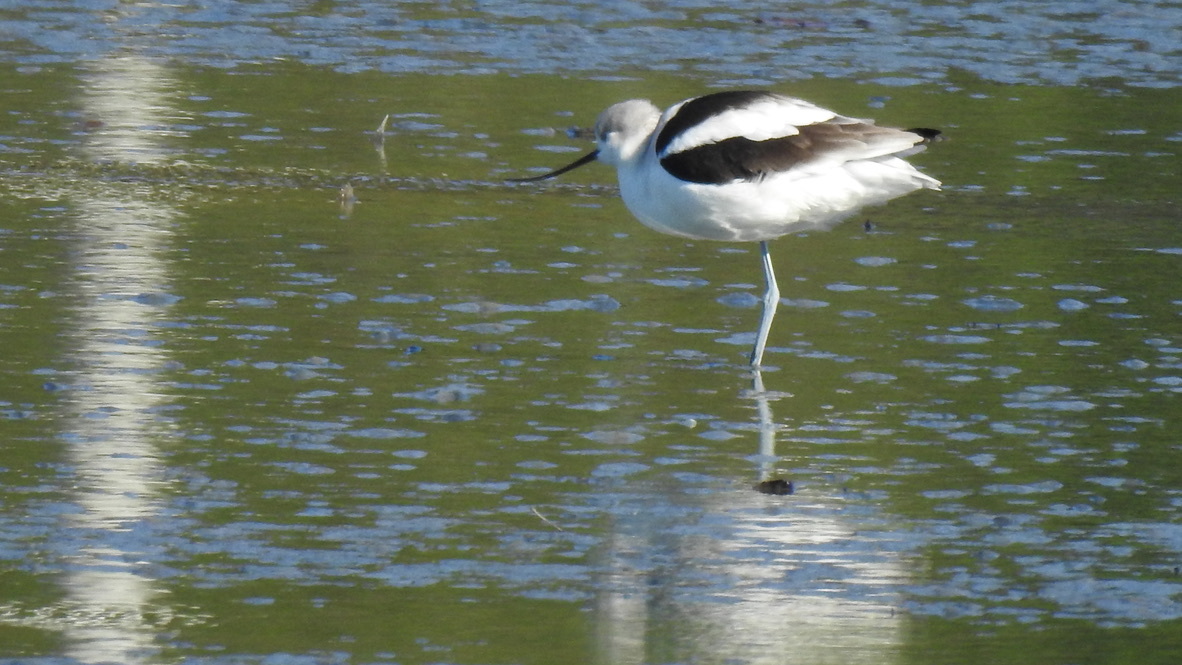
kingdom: Animalia
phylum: Chordata
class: Aves
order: Charadriiformes
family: Recurvirostridae
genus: Recurvirostra
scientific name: Recurvirostra americana
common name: American avocet
